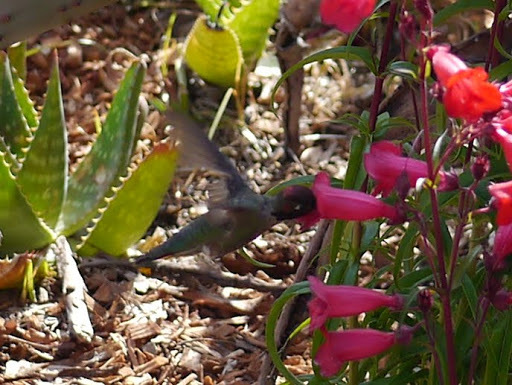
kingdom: Animalia
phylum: Chordata
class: Aves
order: Apodiformes
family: Trochilidae
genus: Calypte
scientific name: Calypte anna
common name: Anna's hummingbird
